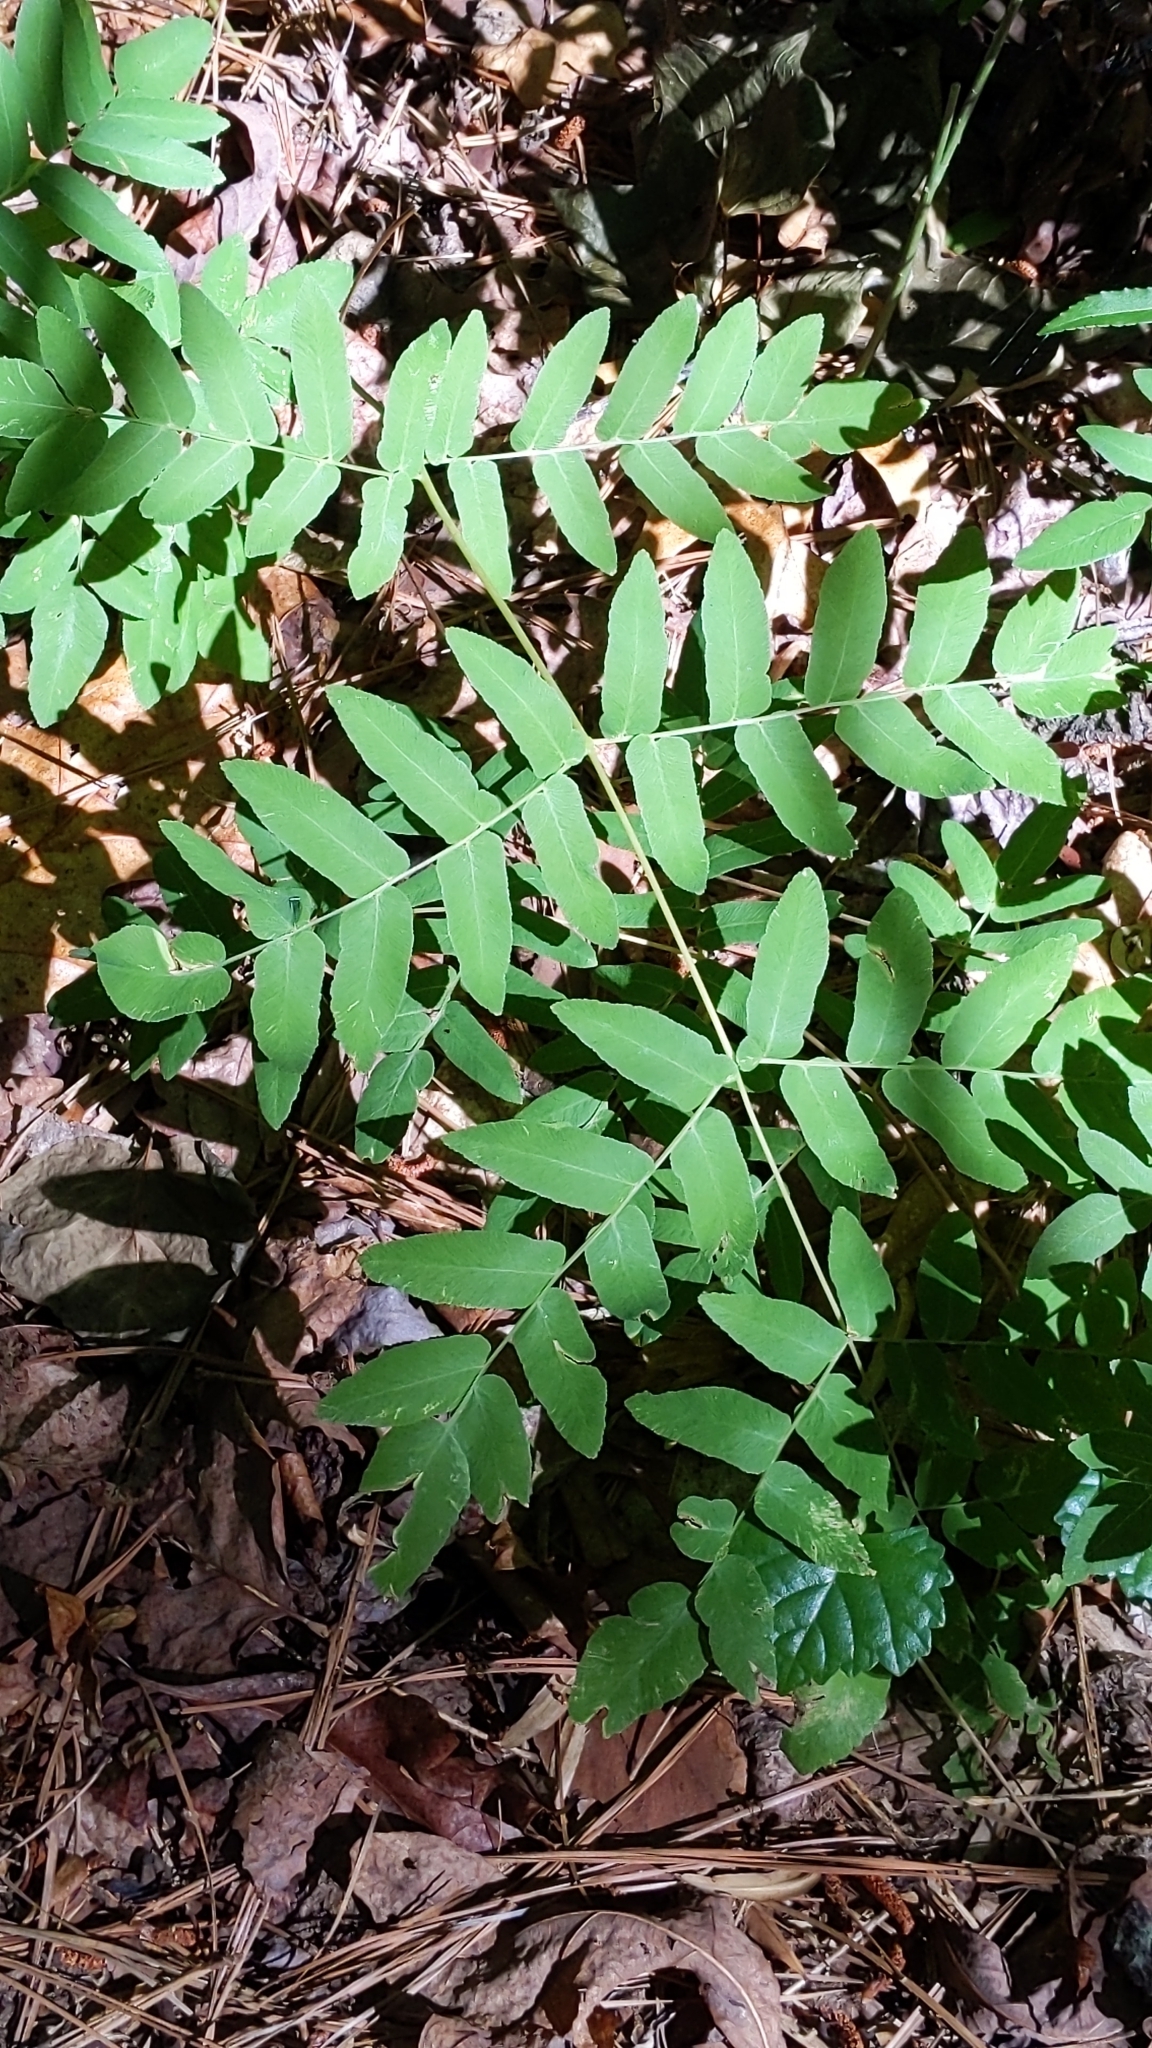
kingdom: Plantae
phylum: Tracheophyta
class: Polypodiopsida
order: Osmundales
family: Osmundaceae
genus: Osmunda
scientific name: Osmunda spectabilis
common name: American royal fern
